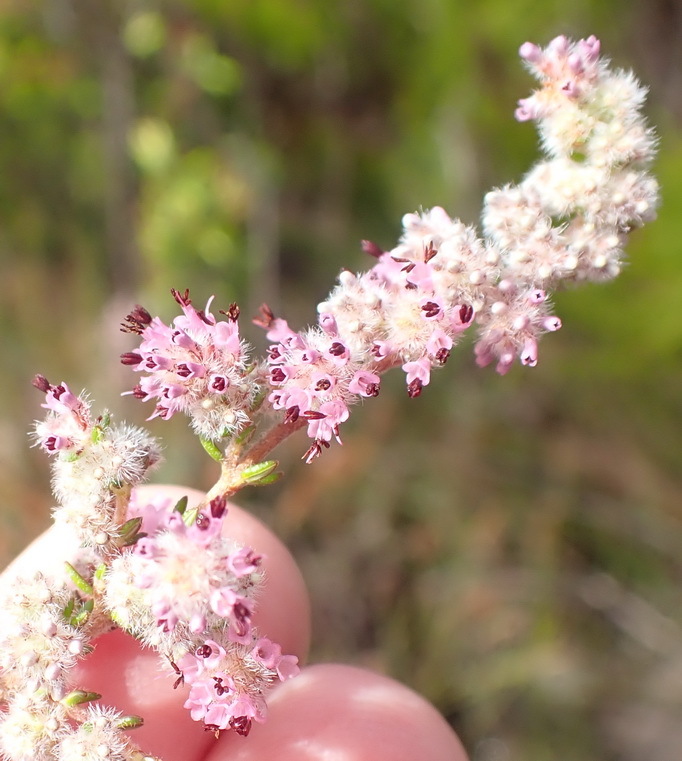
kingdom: Plantae
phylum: Tracheophyta
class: Magnoliopsida
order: Ericales
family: Ericaceae
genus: Erica
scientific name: Erica similis
